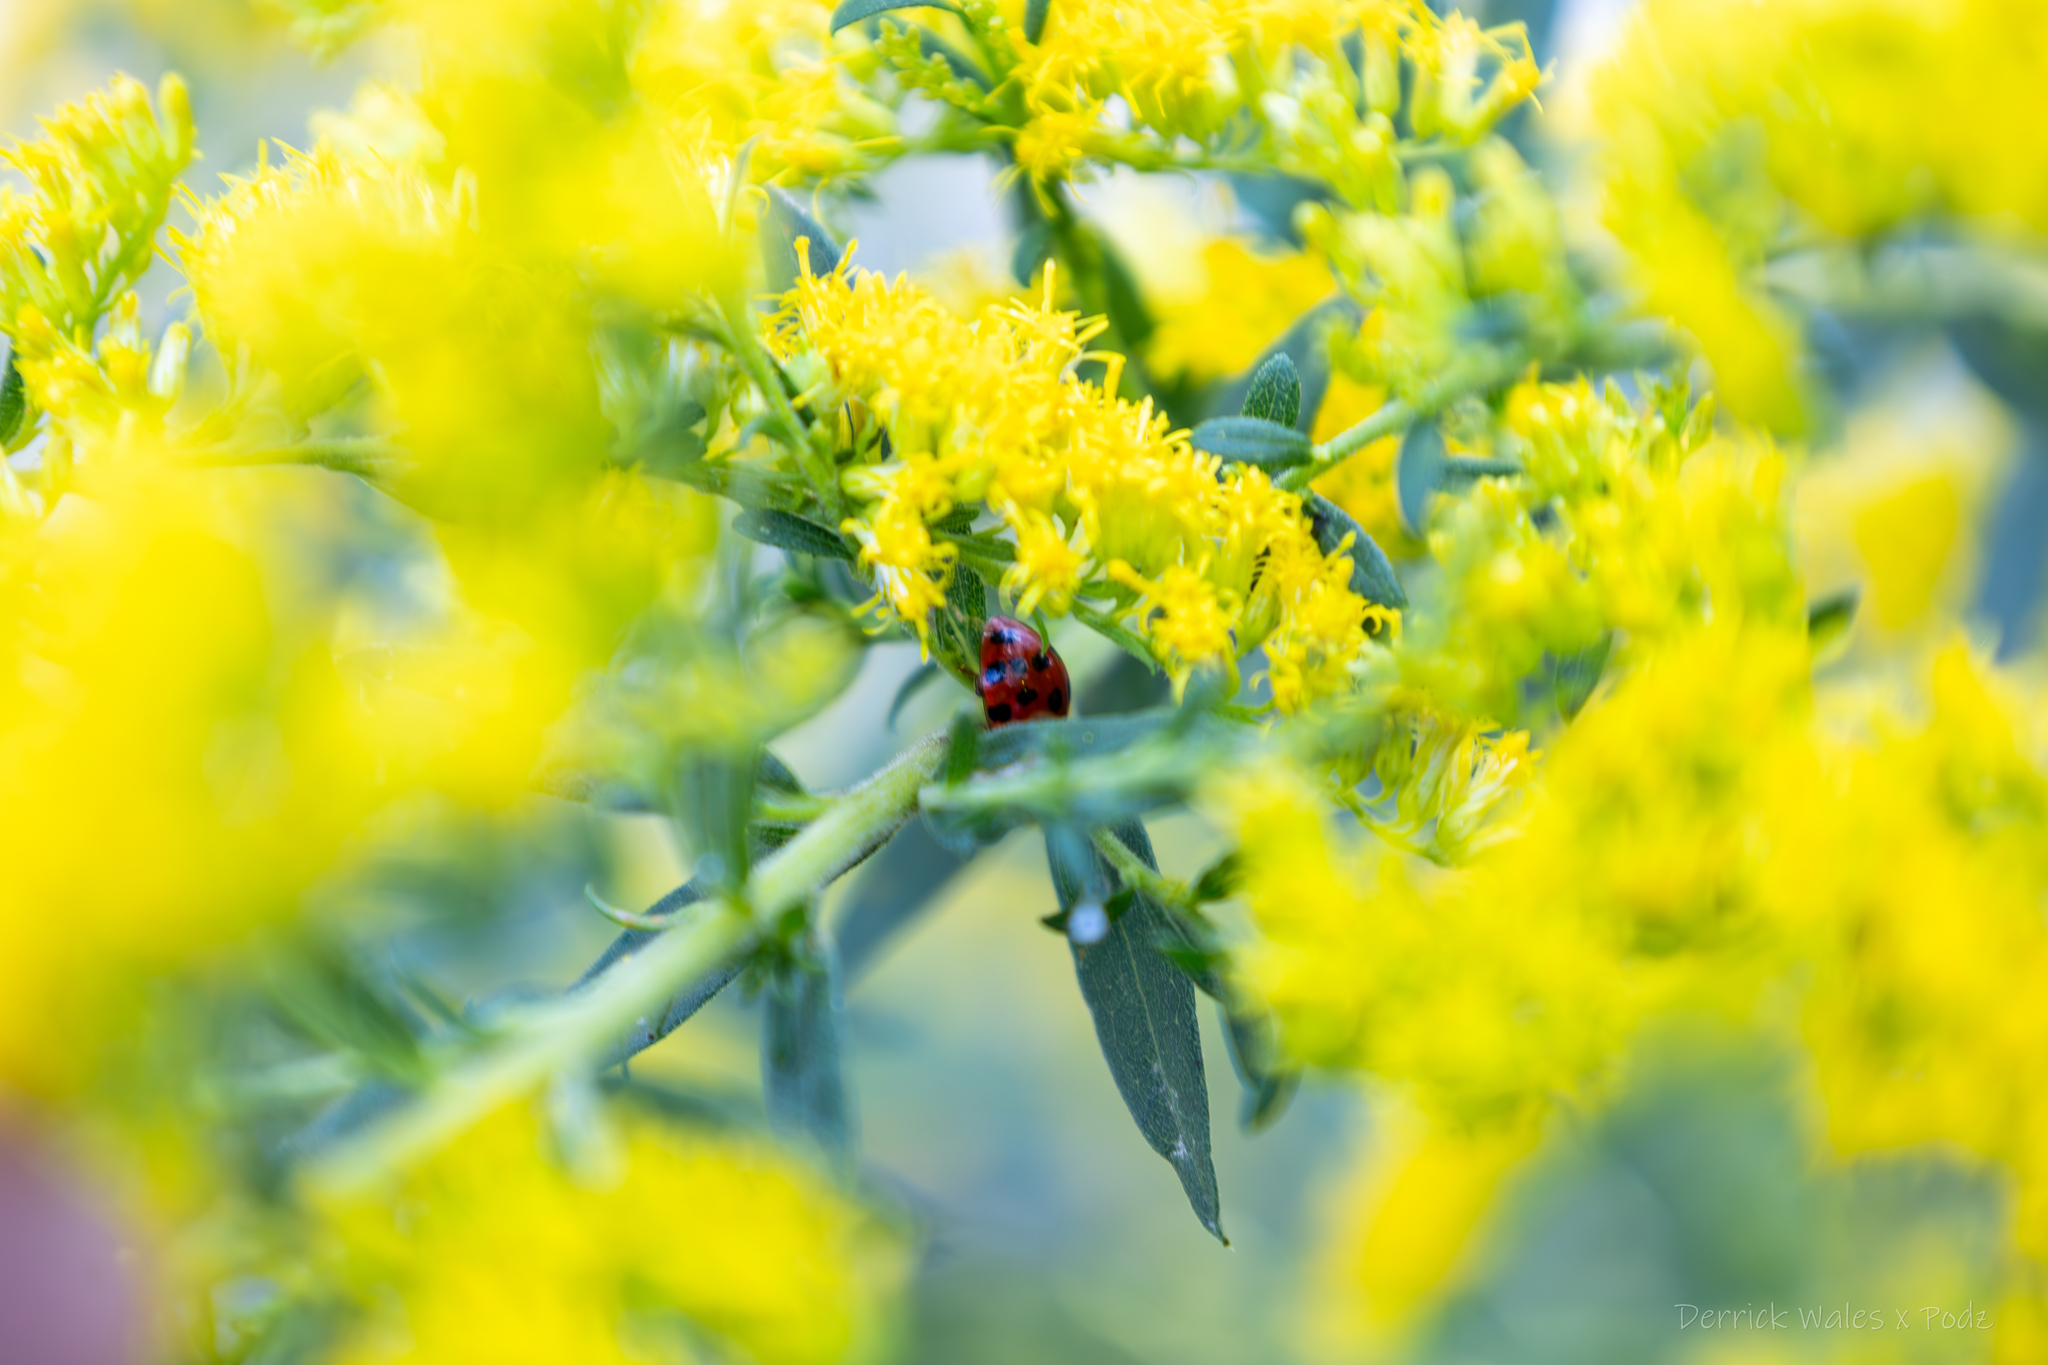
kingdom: Animalia
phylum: Arthropoda
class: Insecta
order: Coleoptera
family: Coccinellidae
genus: Harmonia
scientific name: Harmonia axyridis
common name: Harlequin ladybird
